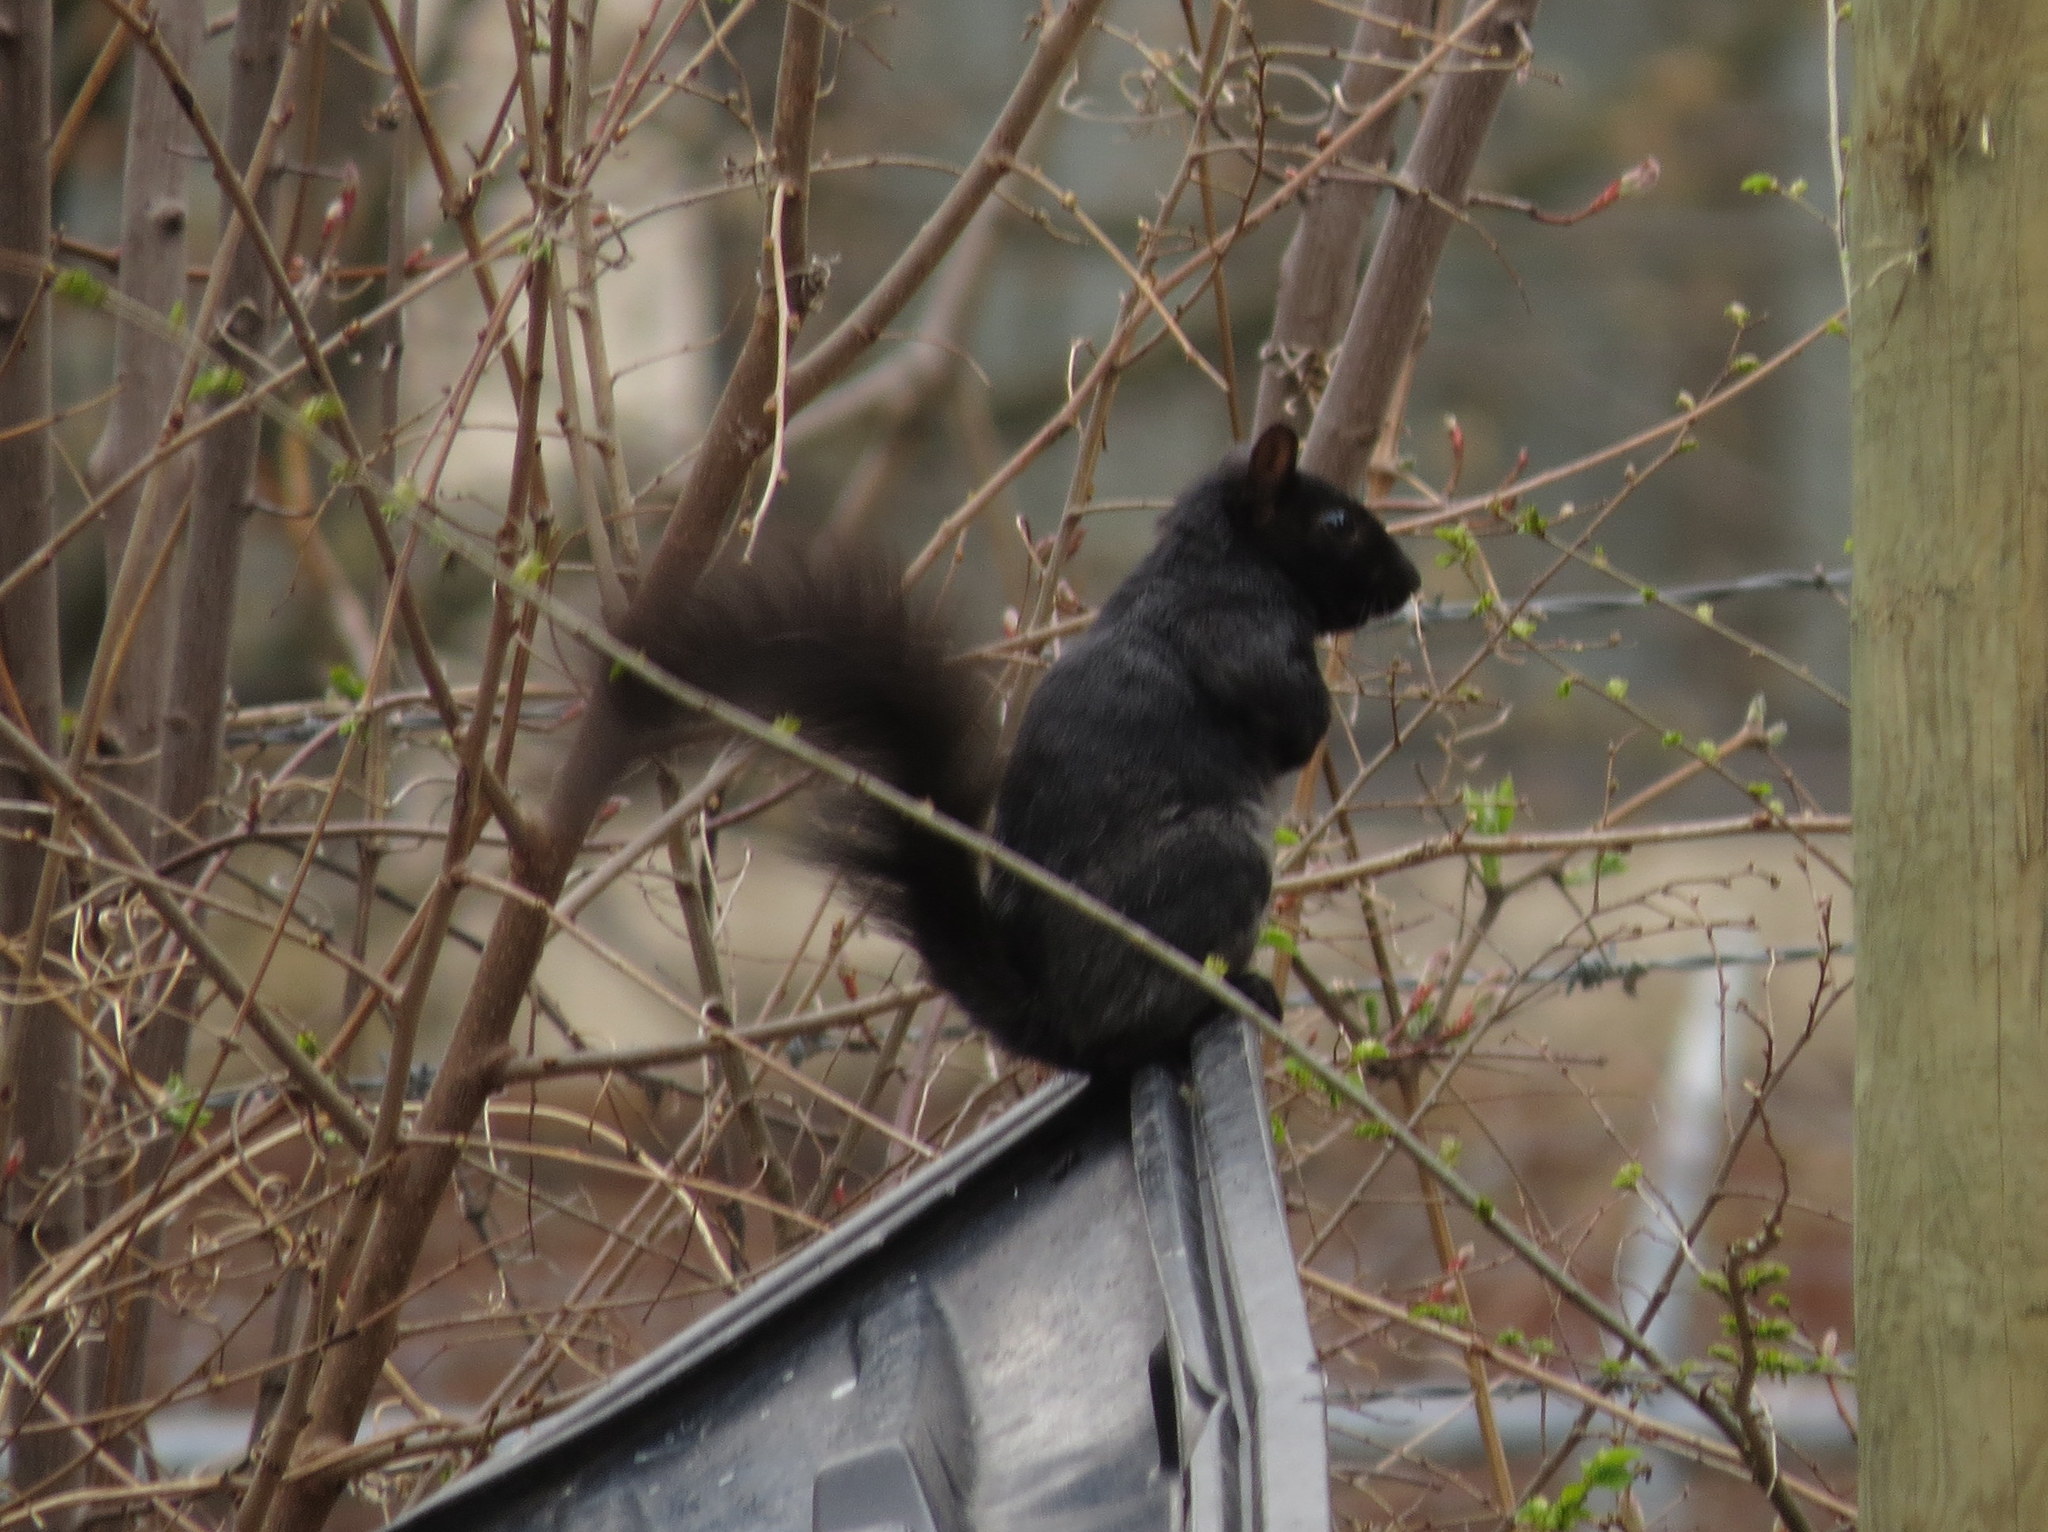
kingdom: Animalia
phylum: Chordata
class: Mammalia
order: Rodentia
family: Sciuridae
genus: Sciurus
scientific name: Sciurus carolinensis
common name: Eastern gray squirrel
